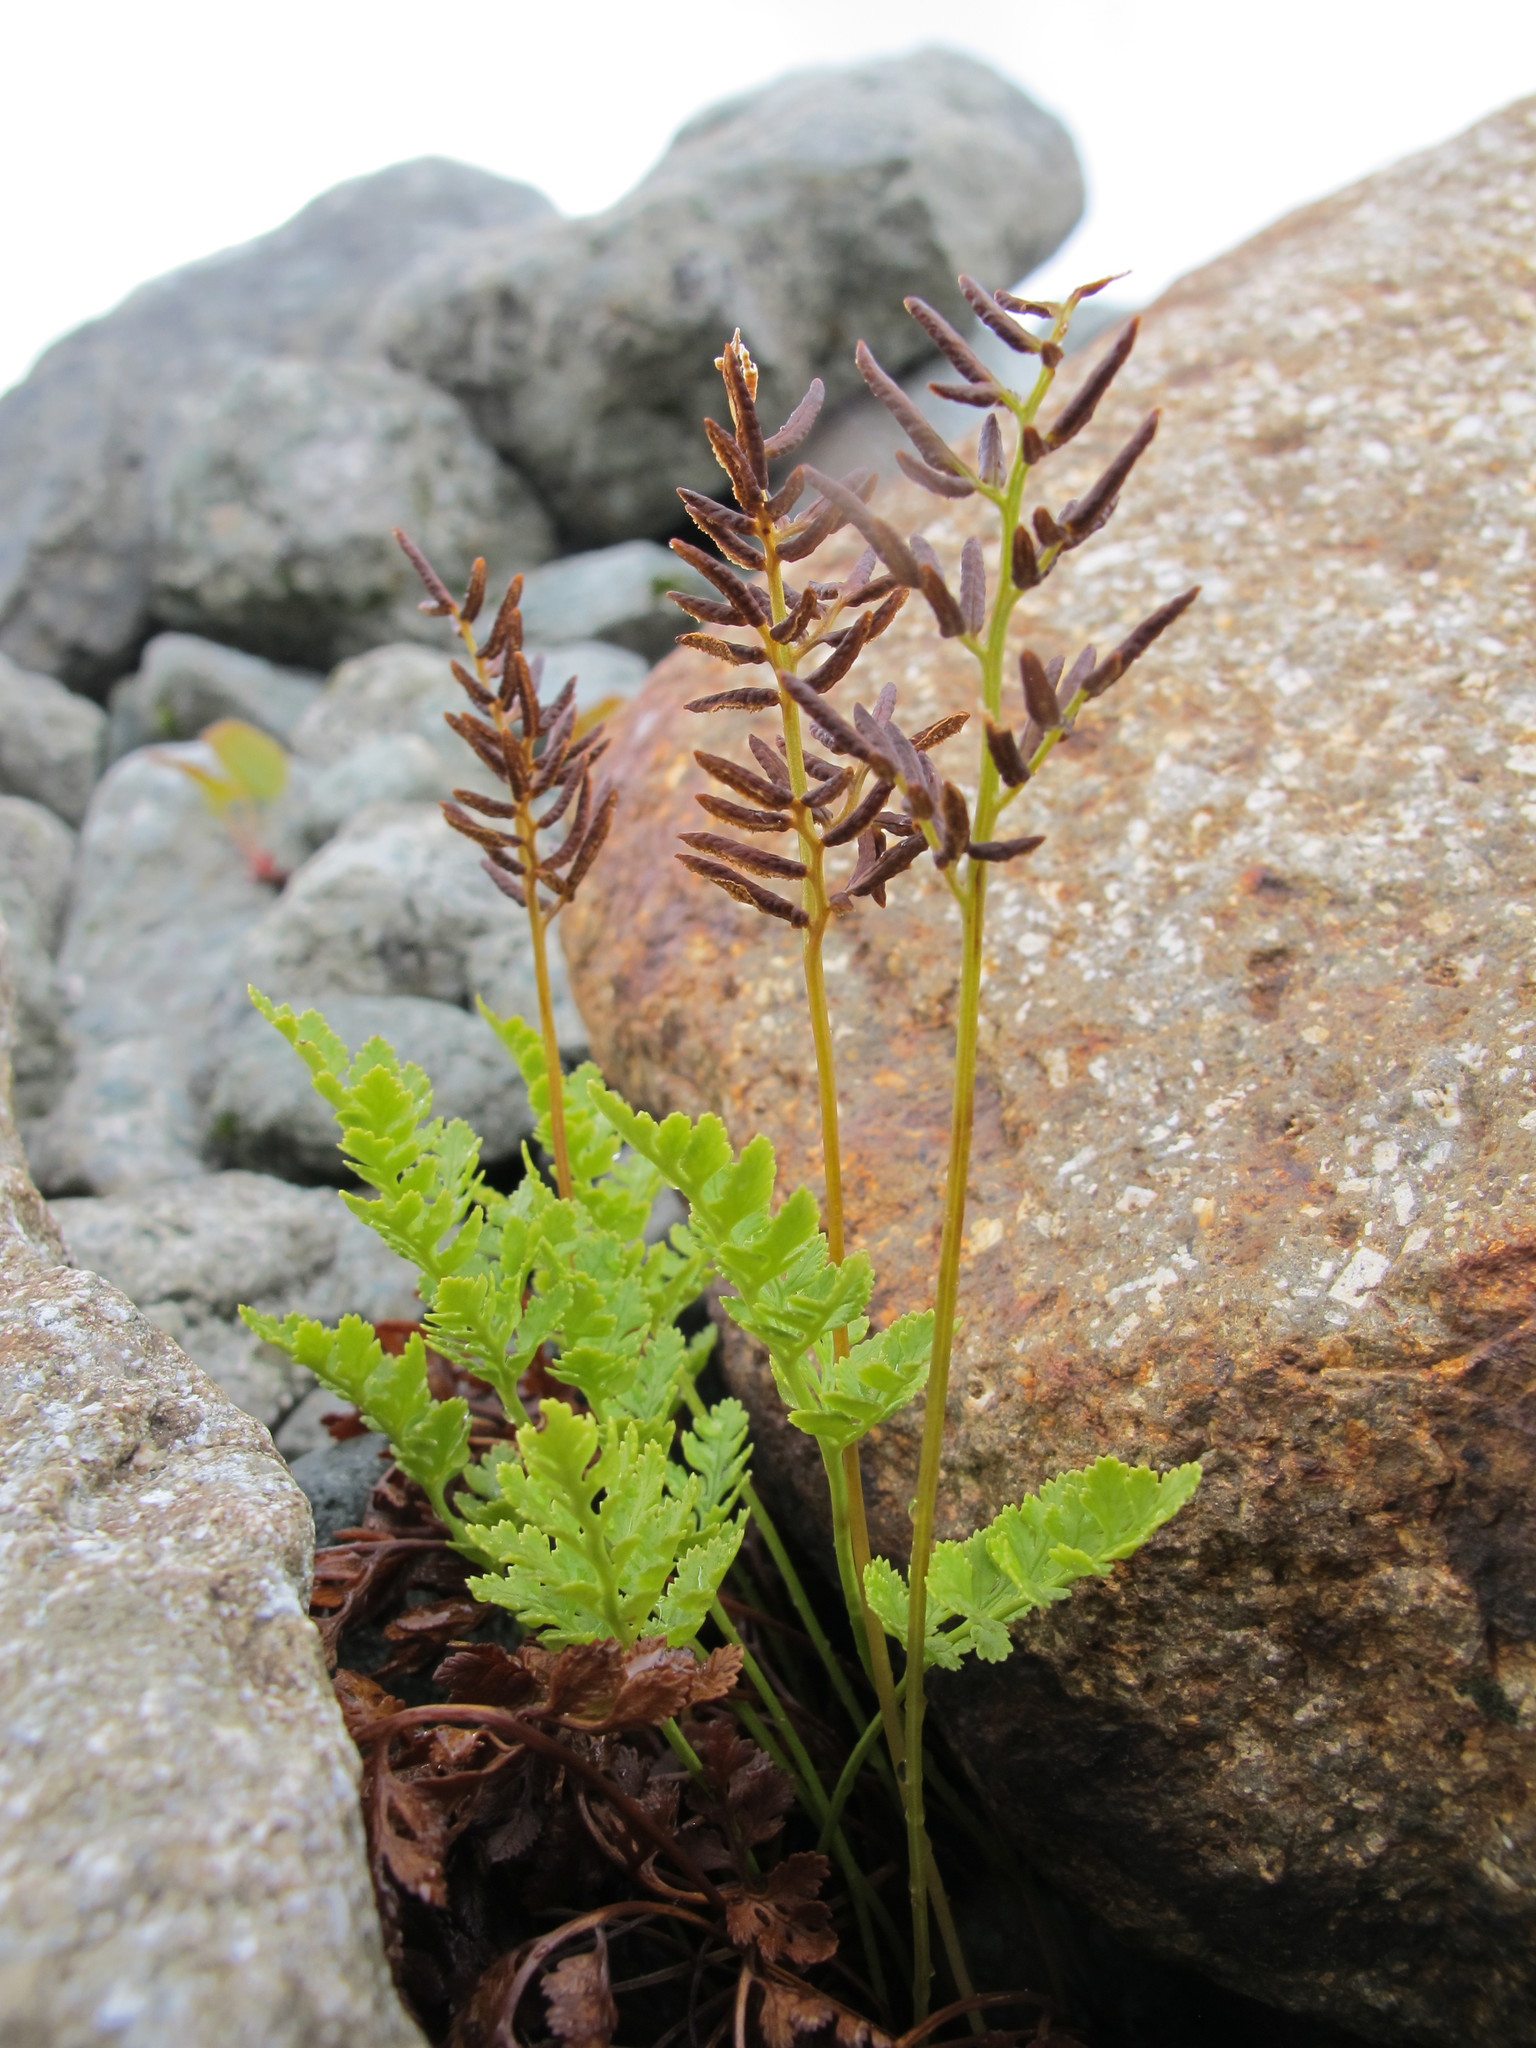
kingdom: Plantae
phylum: Tracheophyta
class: Polypodiopsida
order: Polypodiales
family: Pteridaceae
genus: Cryptogramma
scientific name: Cryptogramma acrostichoides
